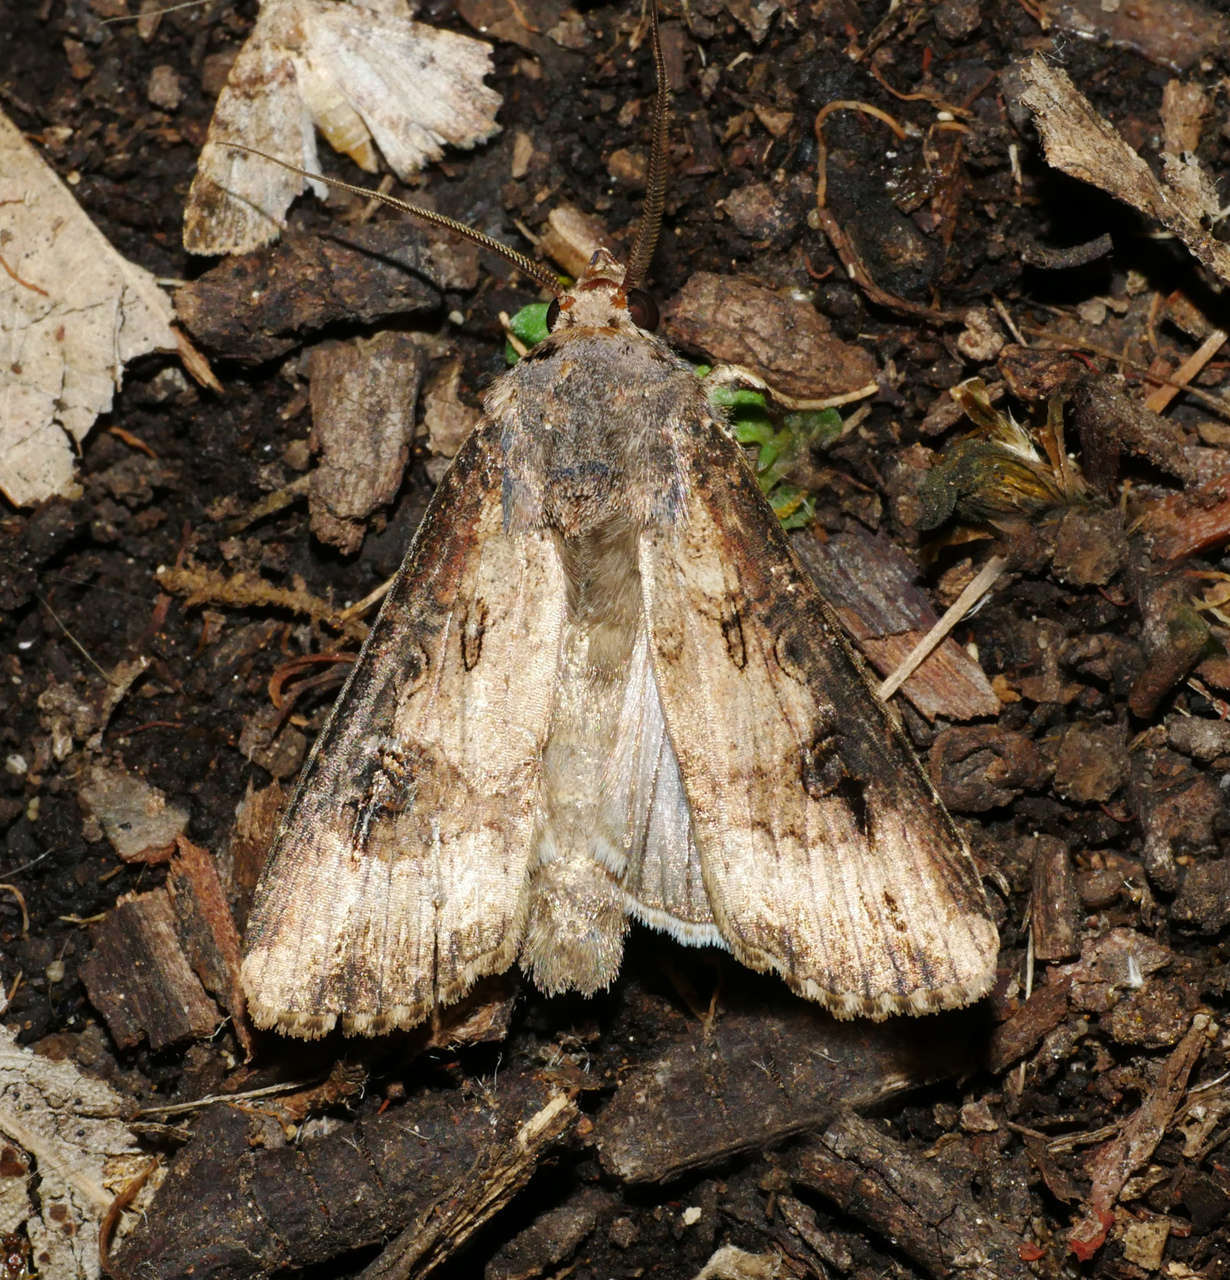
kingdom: Animalia
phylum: Arthropoda
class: Insecta
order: Lepidoptera
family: Noctuidae
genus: Agrotis
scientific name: Agrotis ipsilon
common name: Dark sword-grass
